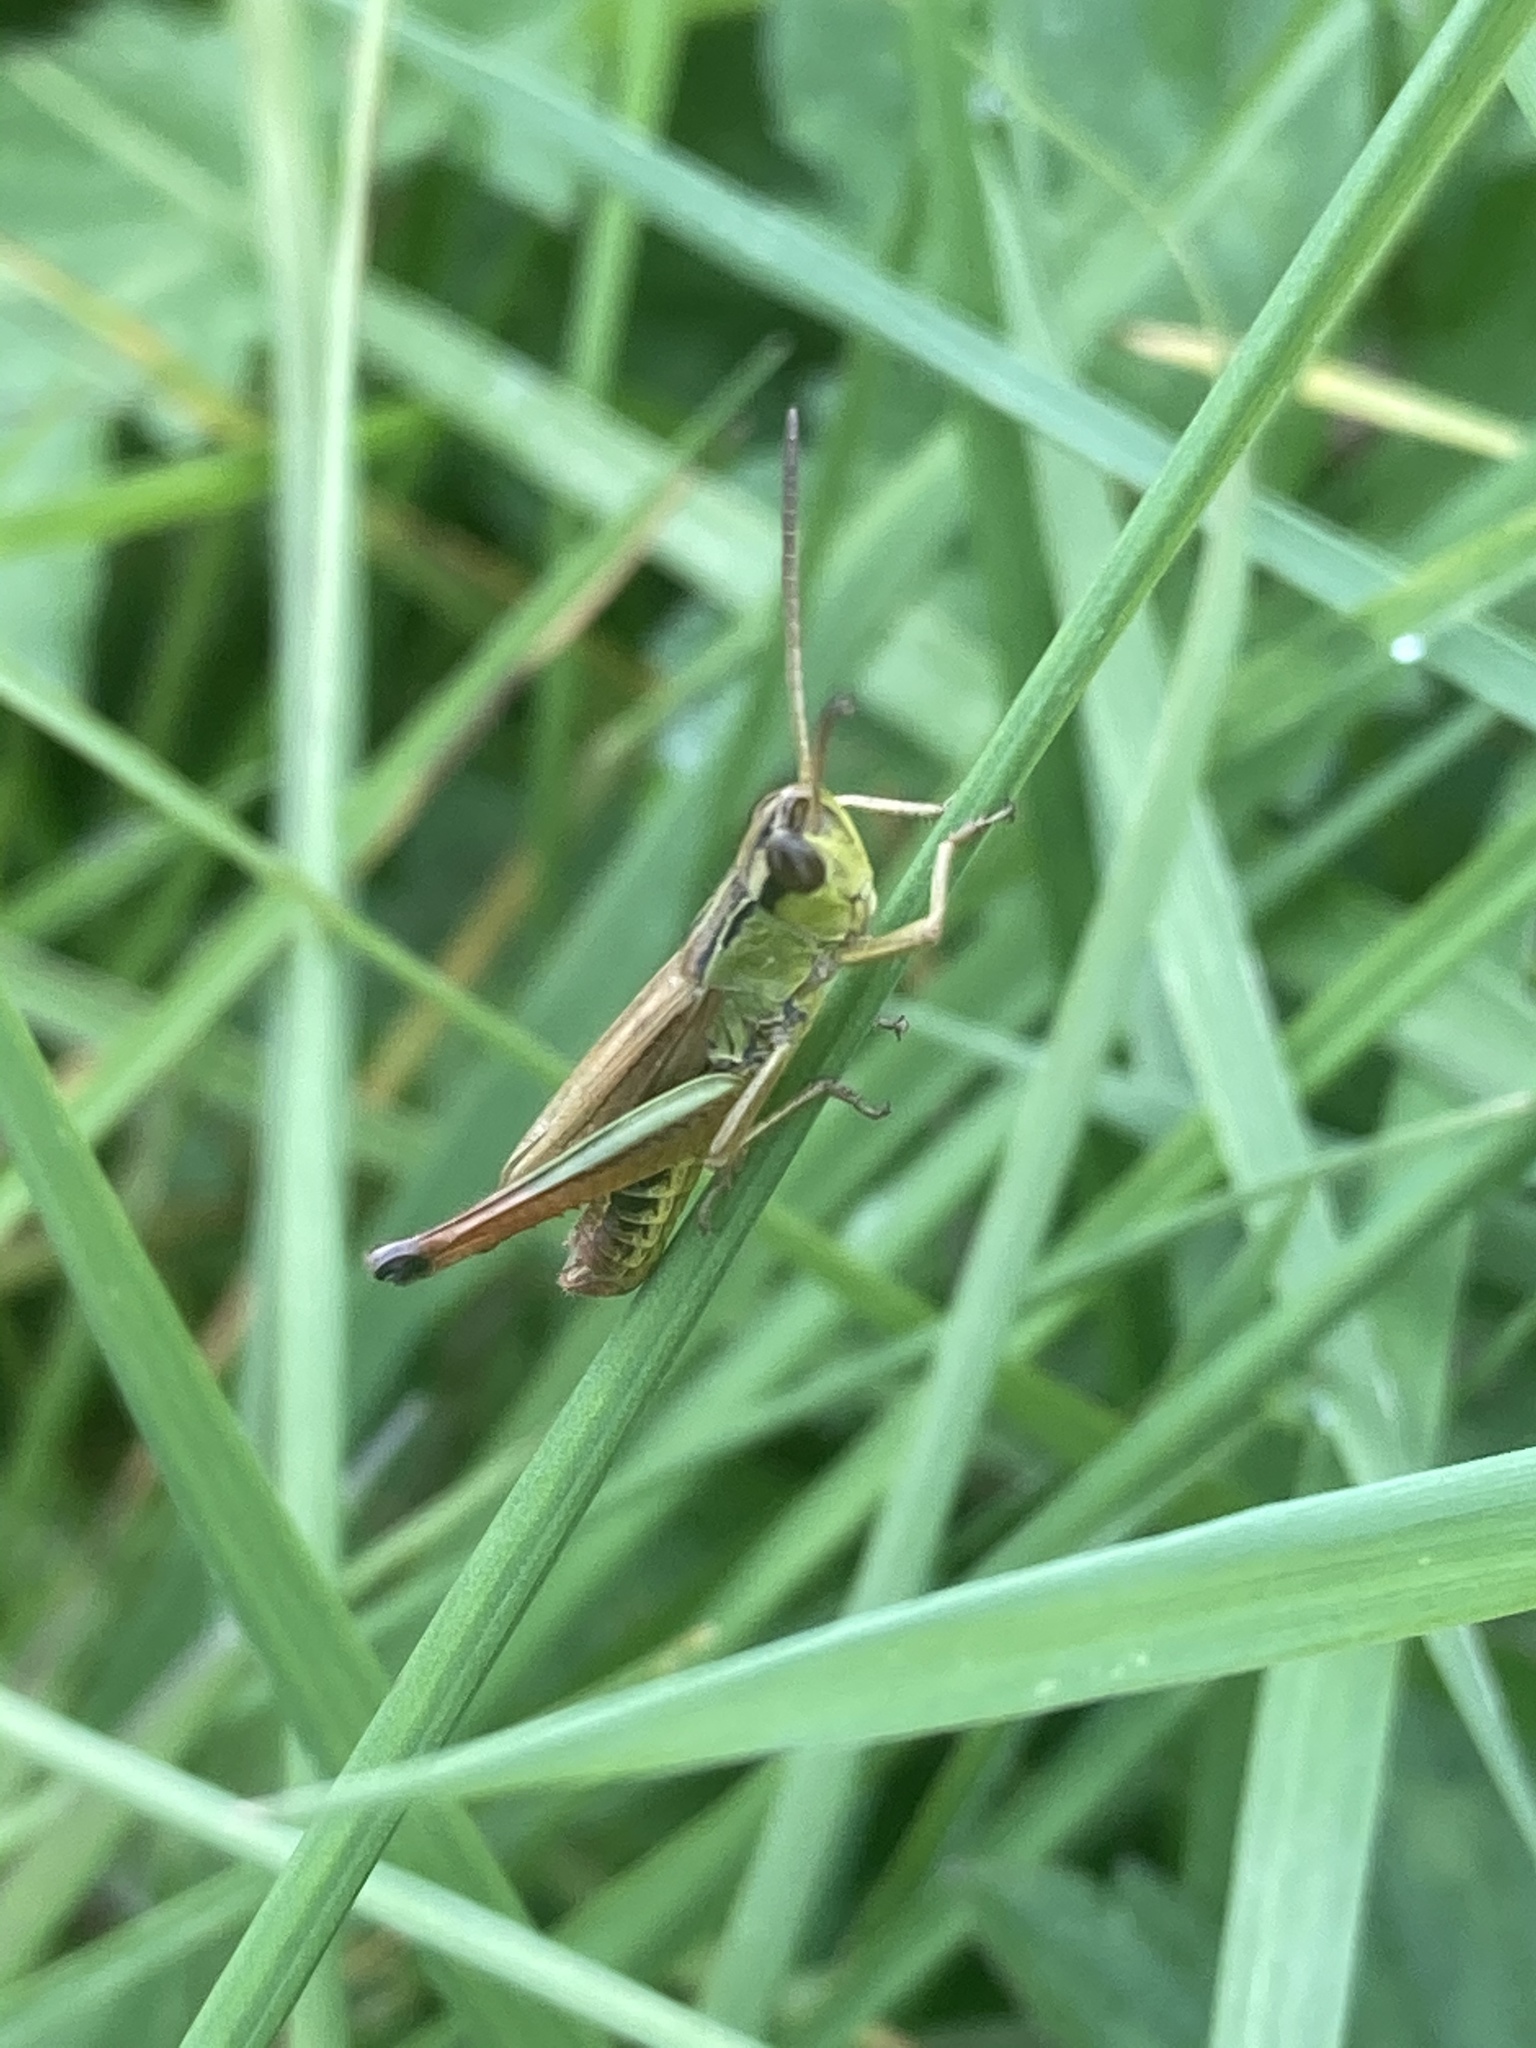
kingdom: Animalia
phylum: Arthropoda
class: Insecta
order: Orthoptera
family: Acrididae
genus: Pseudochorthippus
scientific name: Pseudochorthippus parallelus
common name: Meadow grasshopper
